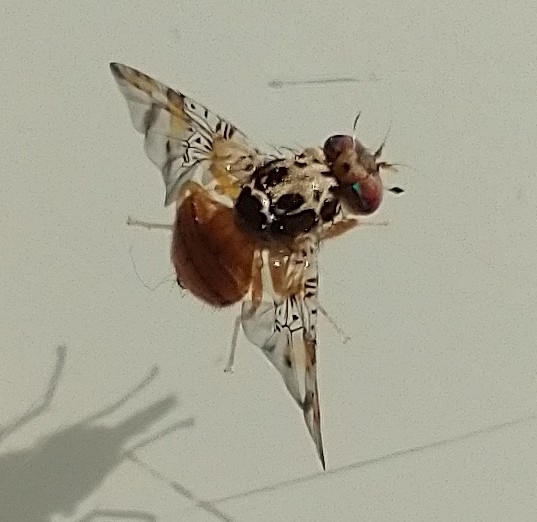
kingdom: Animalia
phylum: Arthropoda
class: Insecta
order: Diptera
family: Tephritidae
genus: Ceratitis
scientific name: Ceratitis capitata
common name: Mediterranean fruit fly
